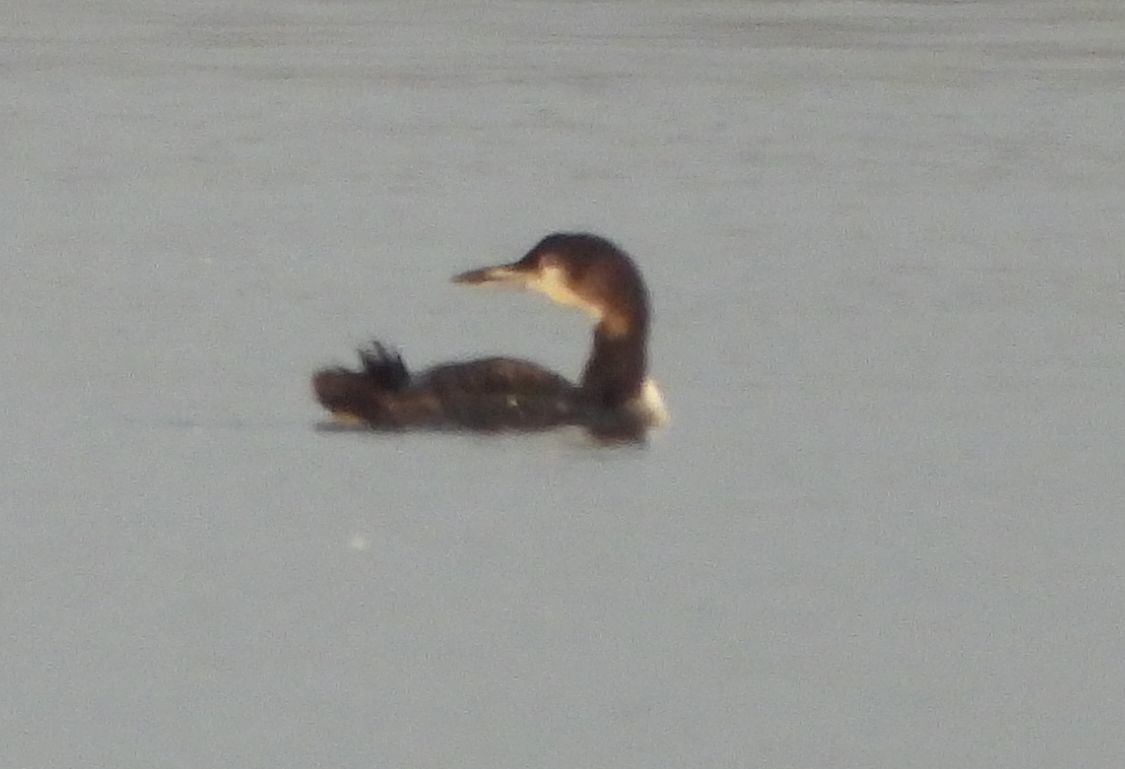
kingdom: Animalia
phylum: Chordata
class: Aves
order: Gaviiformes
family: Gaviidae
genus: Gavia
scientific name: Gavia immer
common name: Common loon
